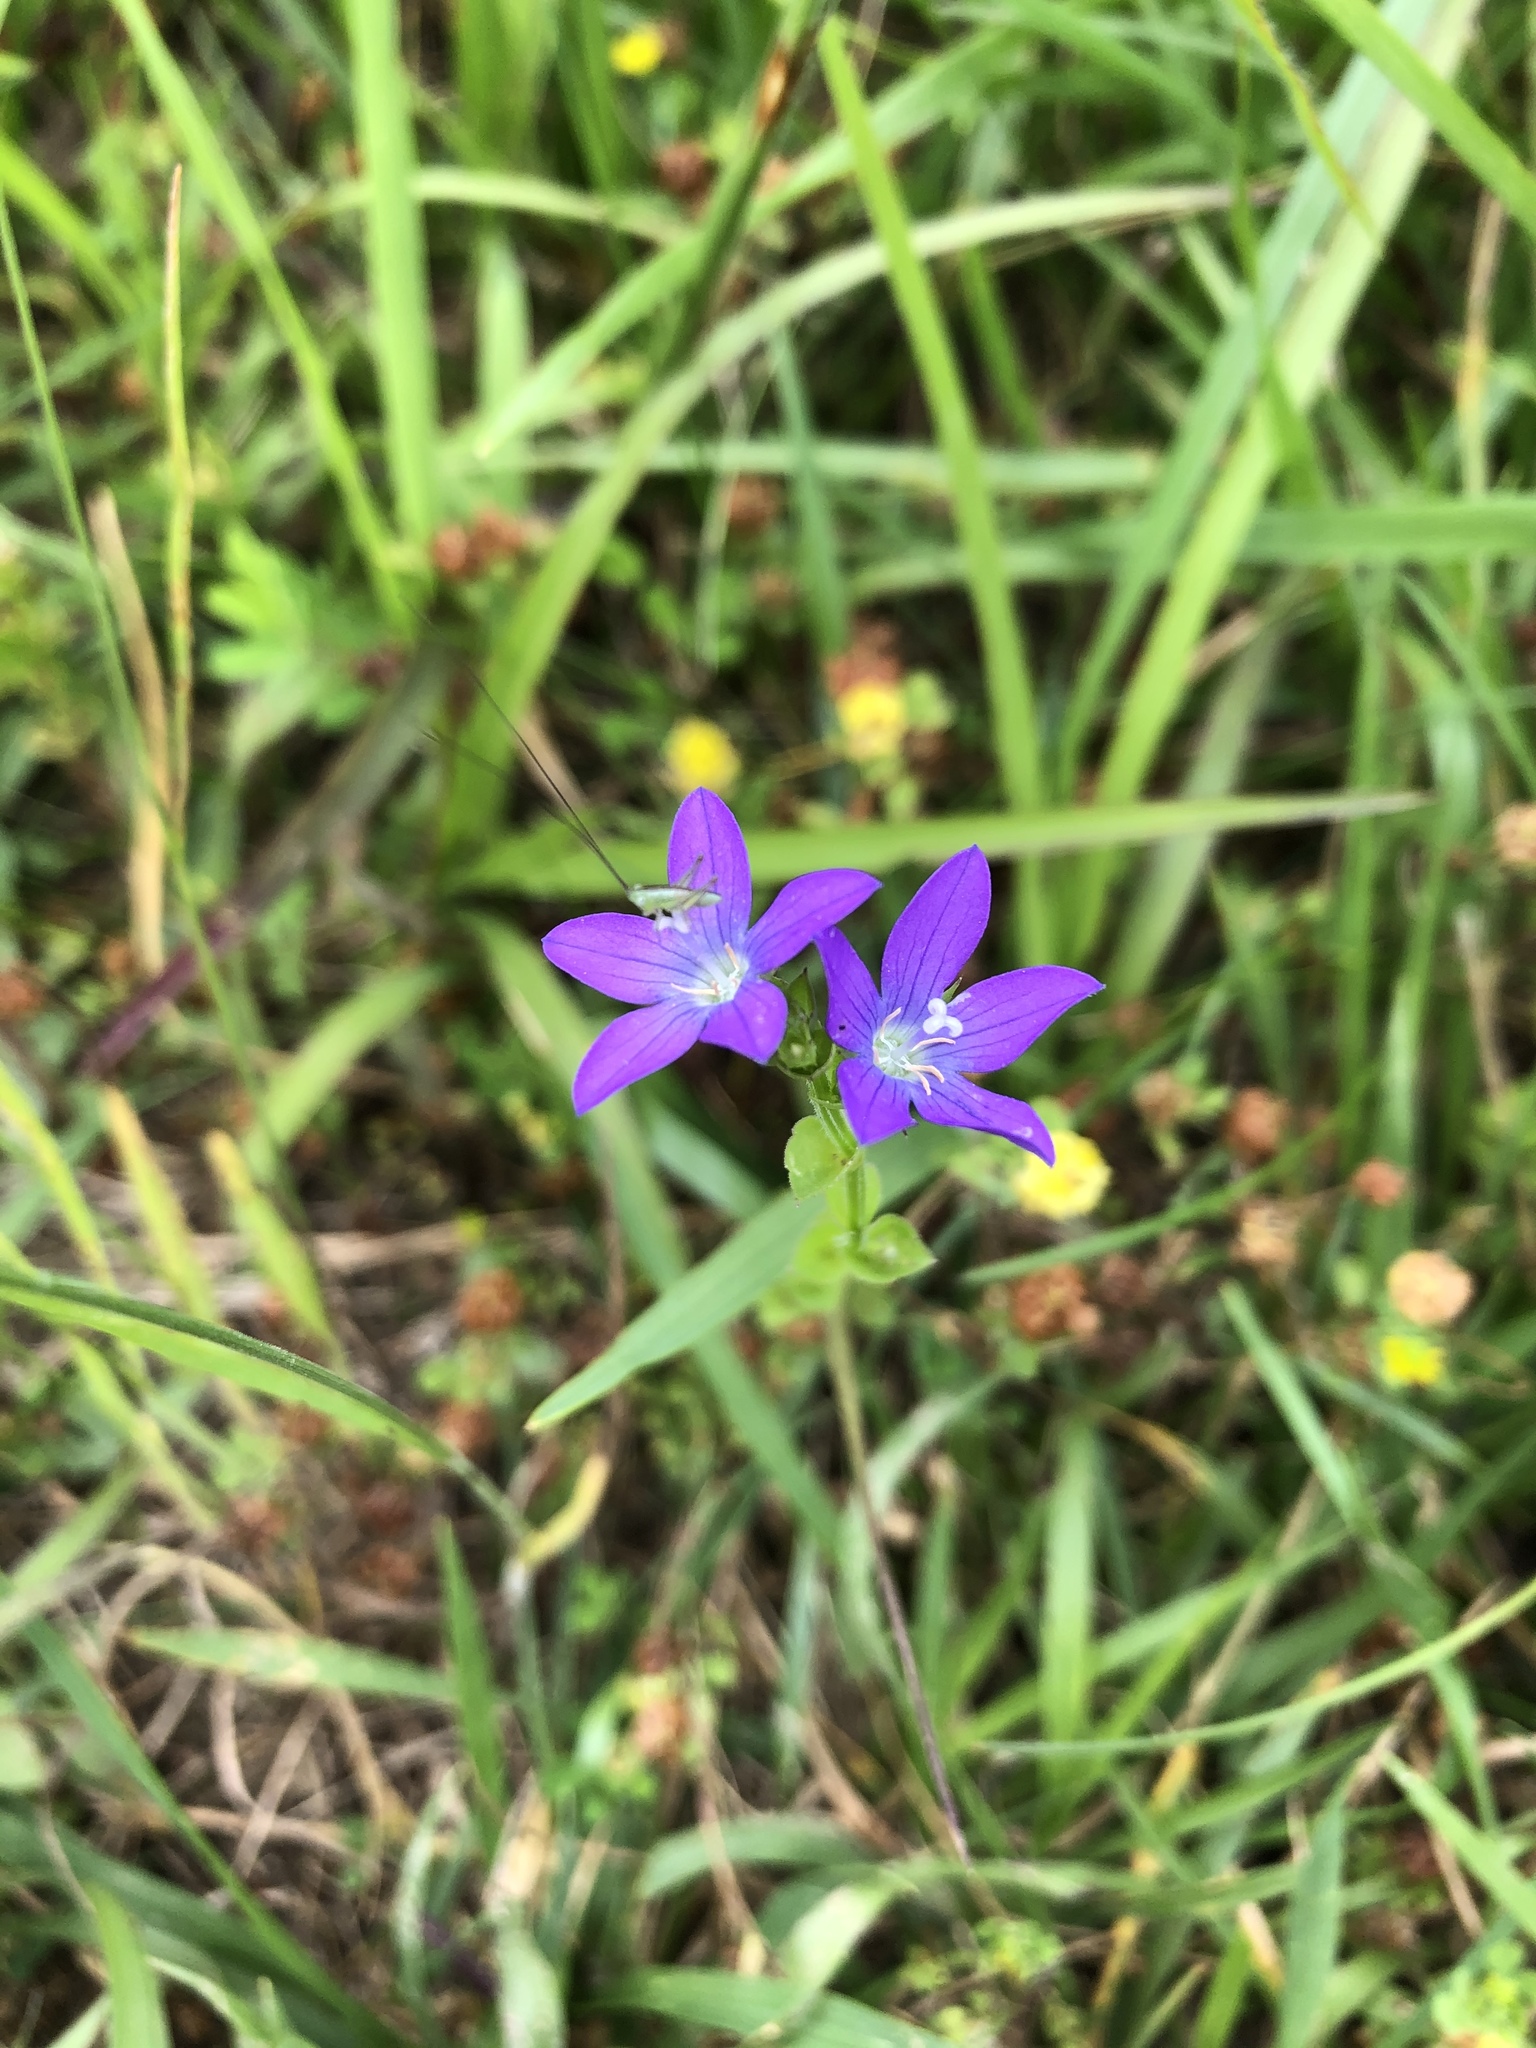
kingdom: Plantae
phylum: Tracheophyta
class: Magnoliopsida
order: Asterales
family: Campanulaceae
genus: Triodanis
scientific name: Triodanis perfoliata
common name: Clasping venus' looking-glass
